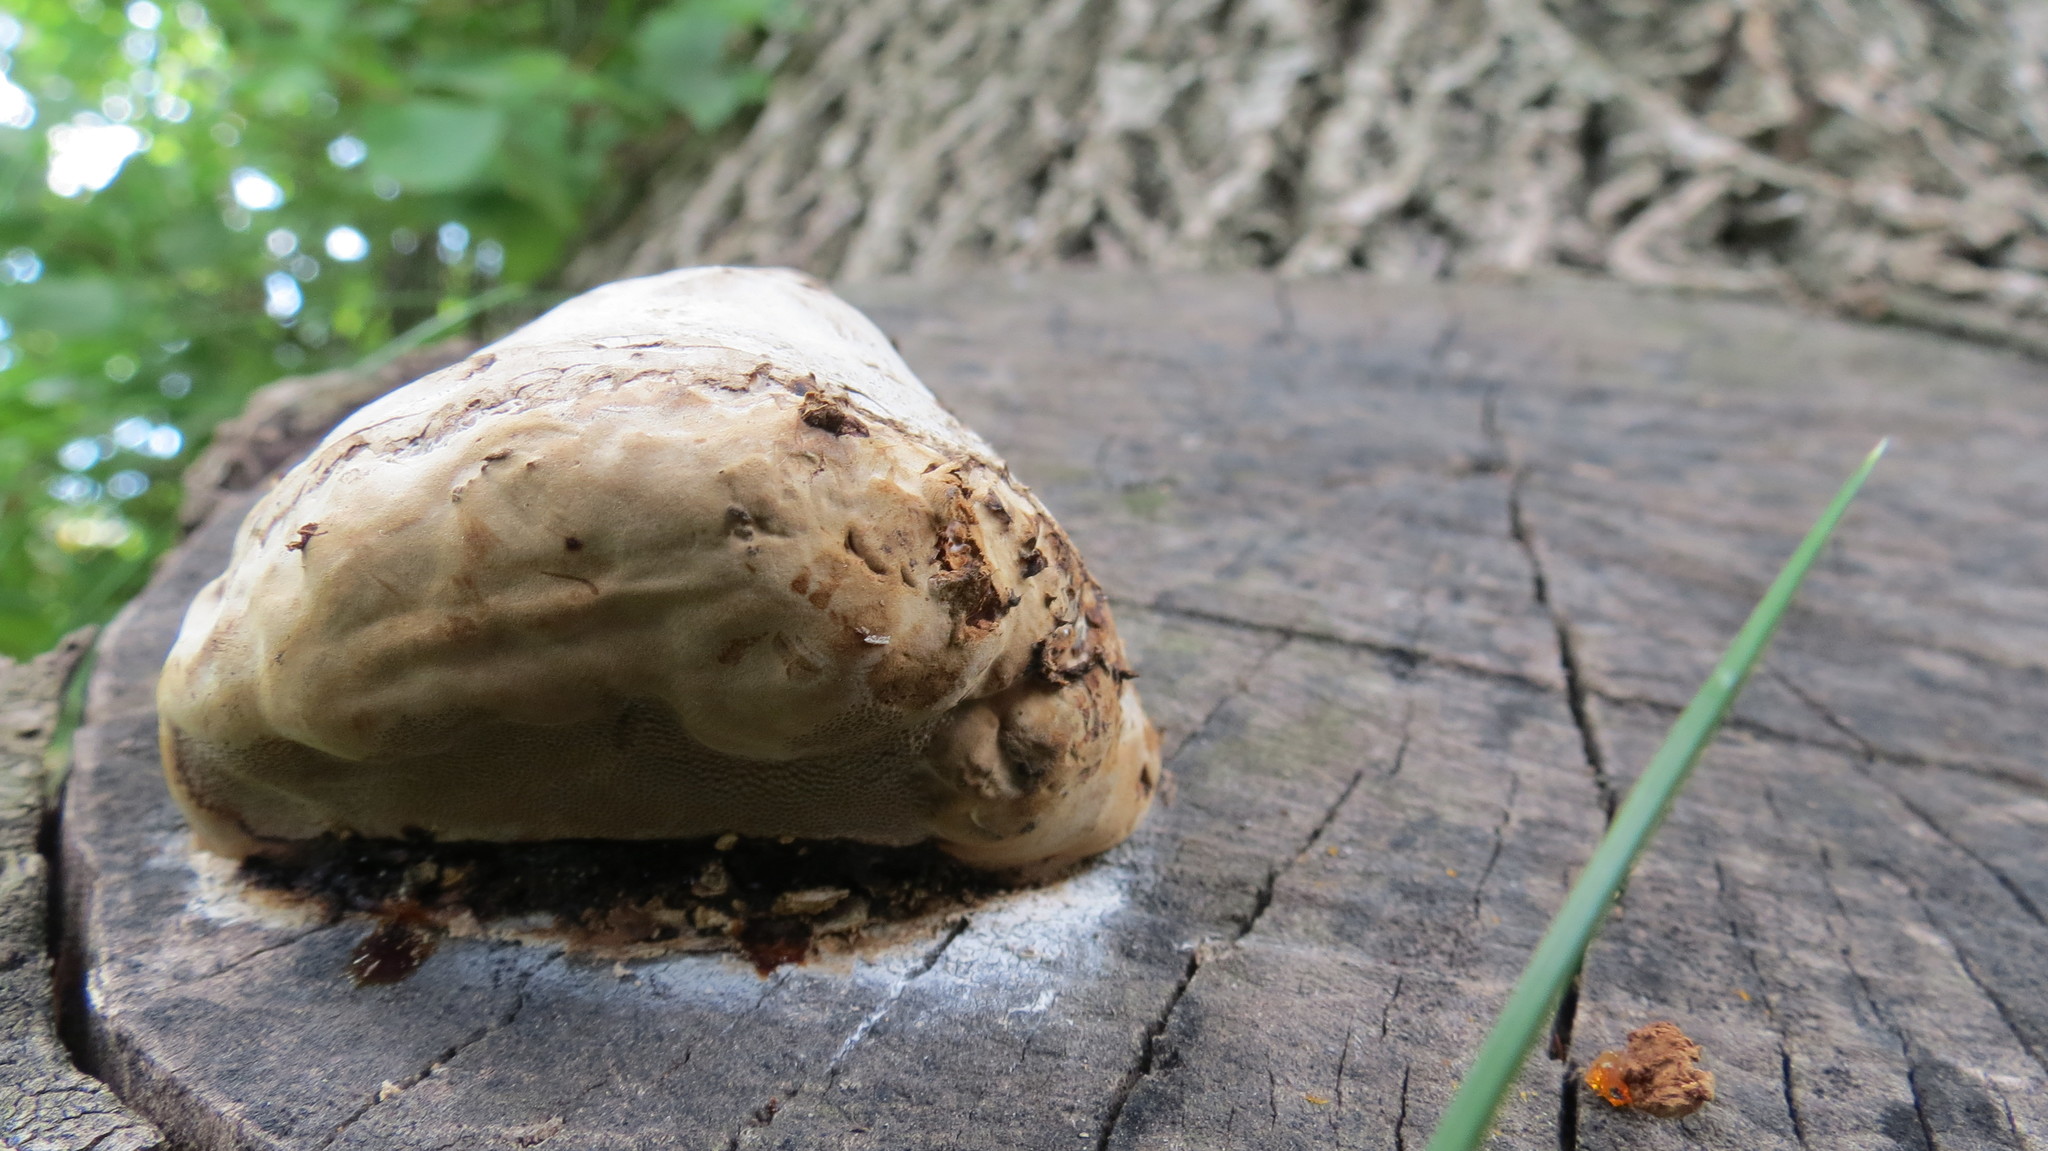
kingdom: Fungi
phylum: Basidiomycota
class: Agaricomycetes
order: Hymenochaetales
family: Hymenochaetaceae
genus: Fomitiporia
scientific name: Fomitiporia robusta
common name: Robust bracket
